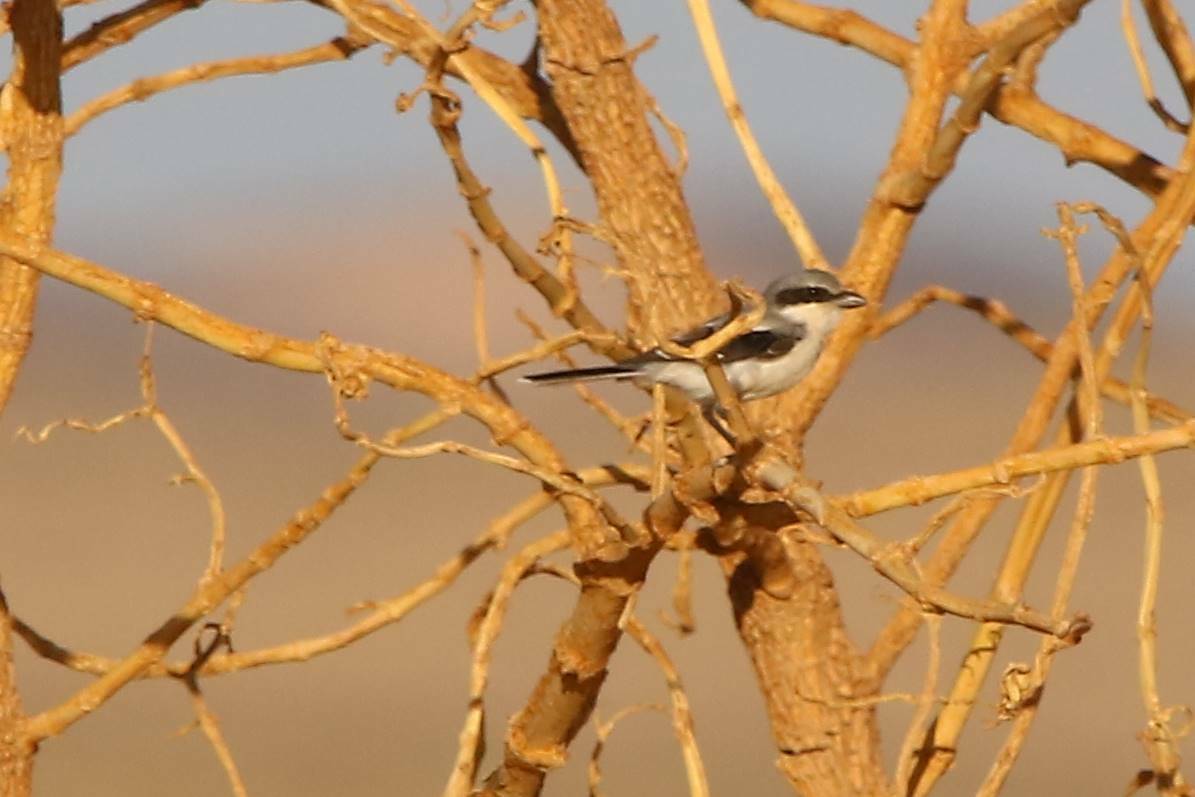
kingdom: Animalia
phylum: Chordata
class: Aves
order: Passeriformes
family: Laniidae
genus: Lanius
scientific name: Lanius excubitor
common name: Great grey shrike
